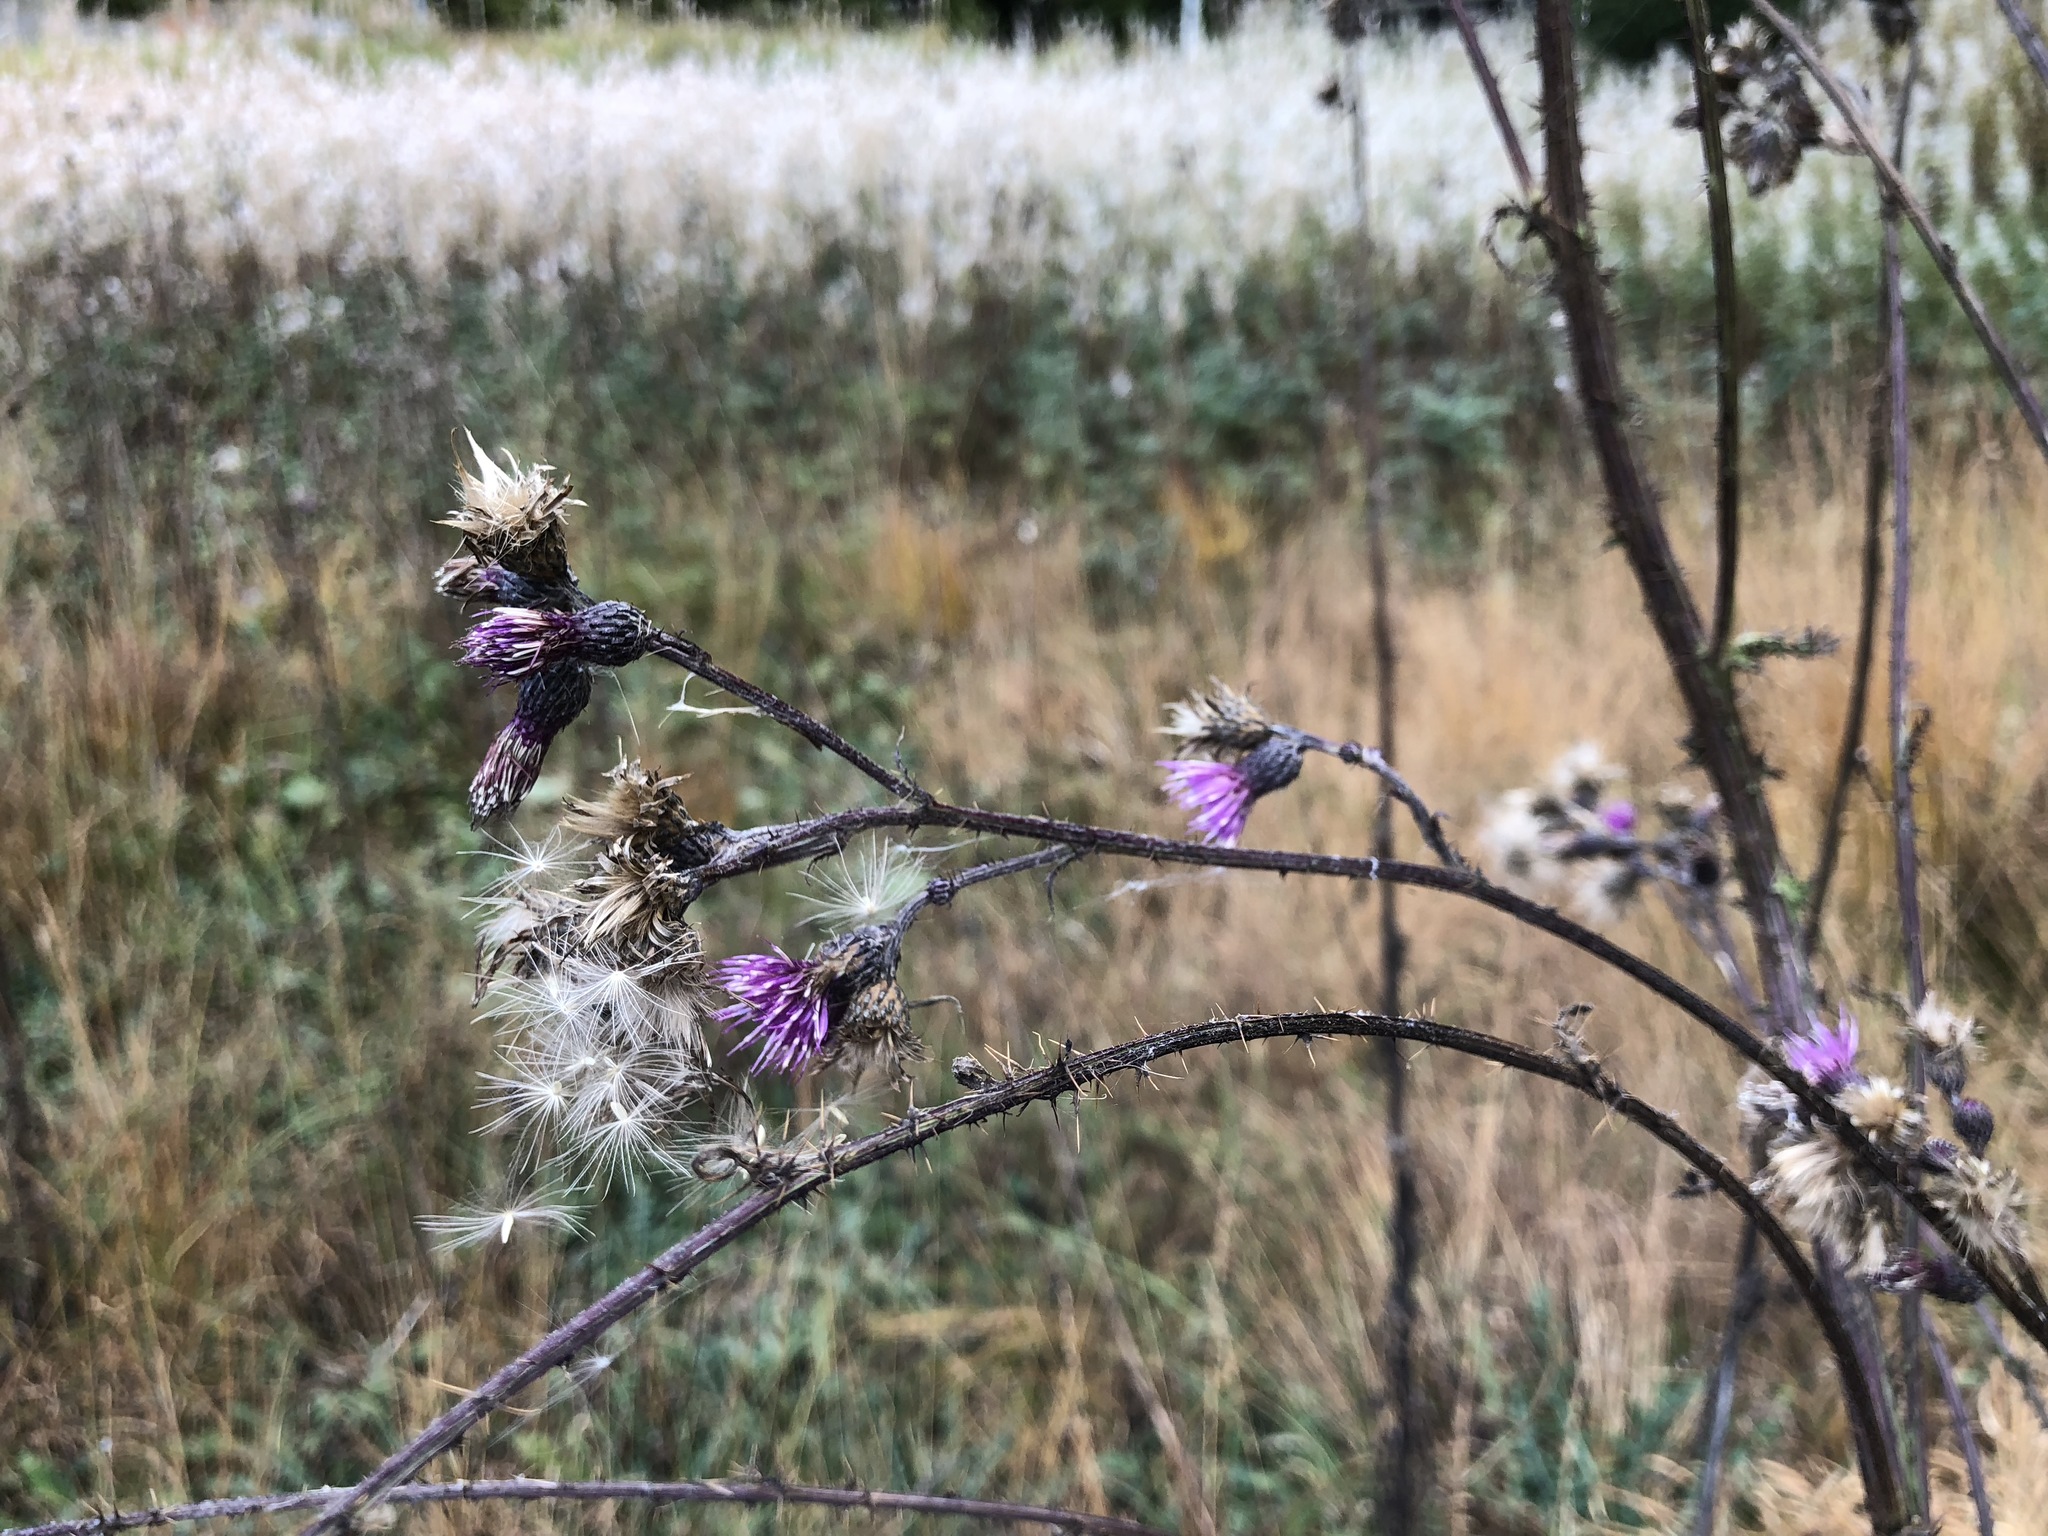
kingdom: Plantae
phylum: Tracheophyta
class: Magnoliopsida
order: Asterales
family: Asteraceae
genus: Cirsium
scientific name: Cirsium palustre
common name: Marsh thistle
